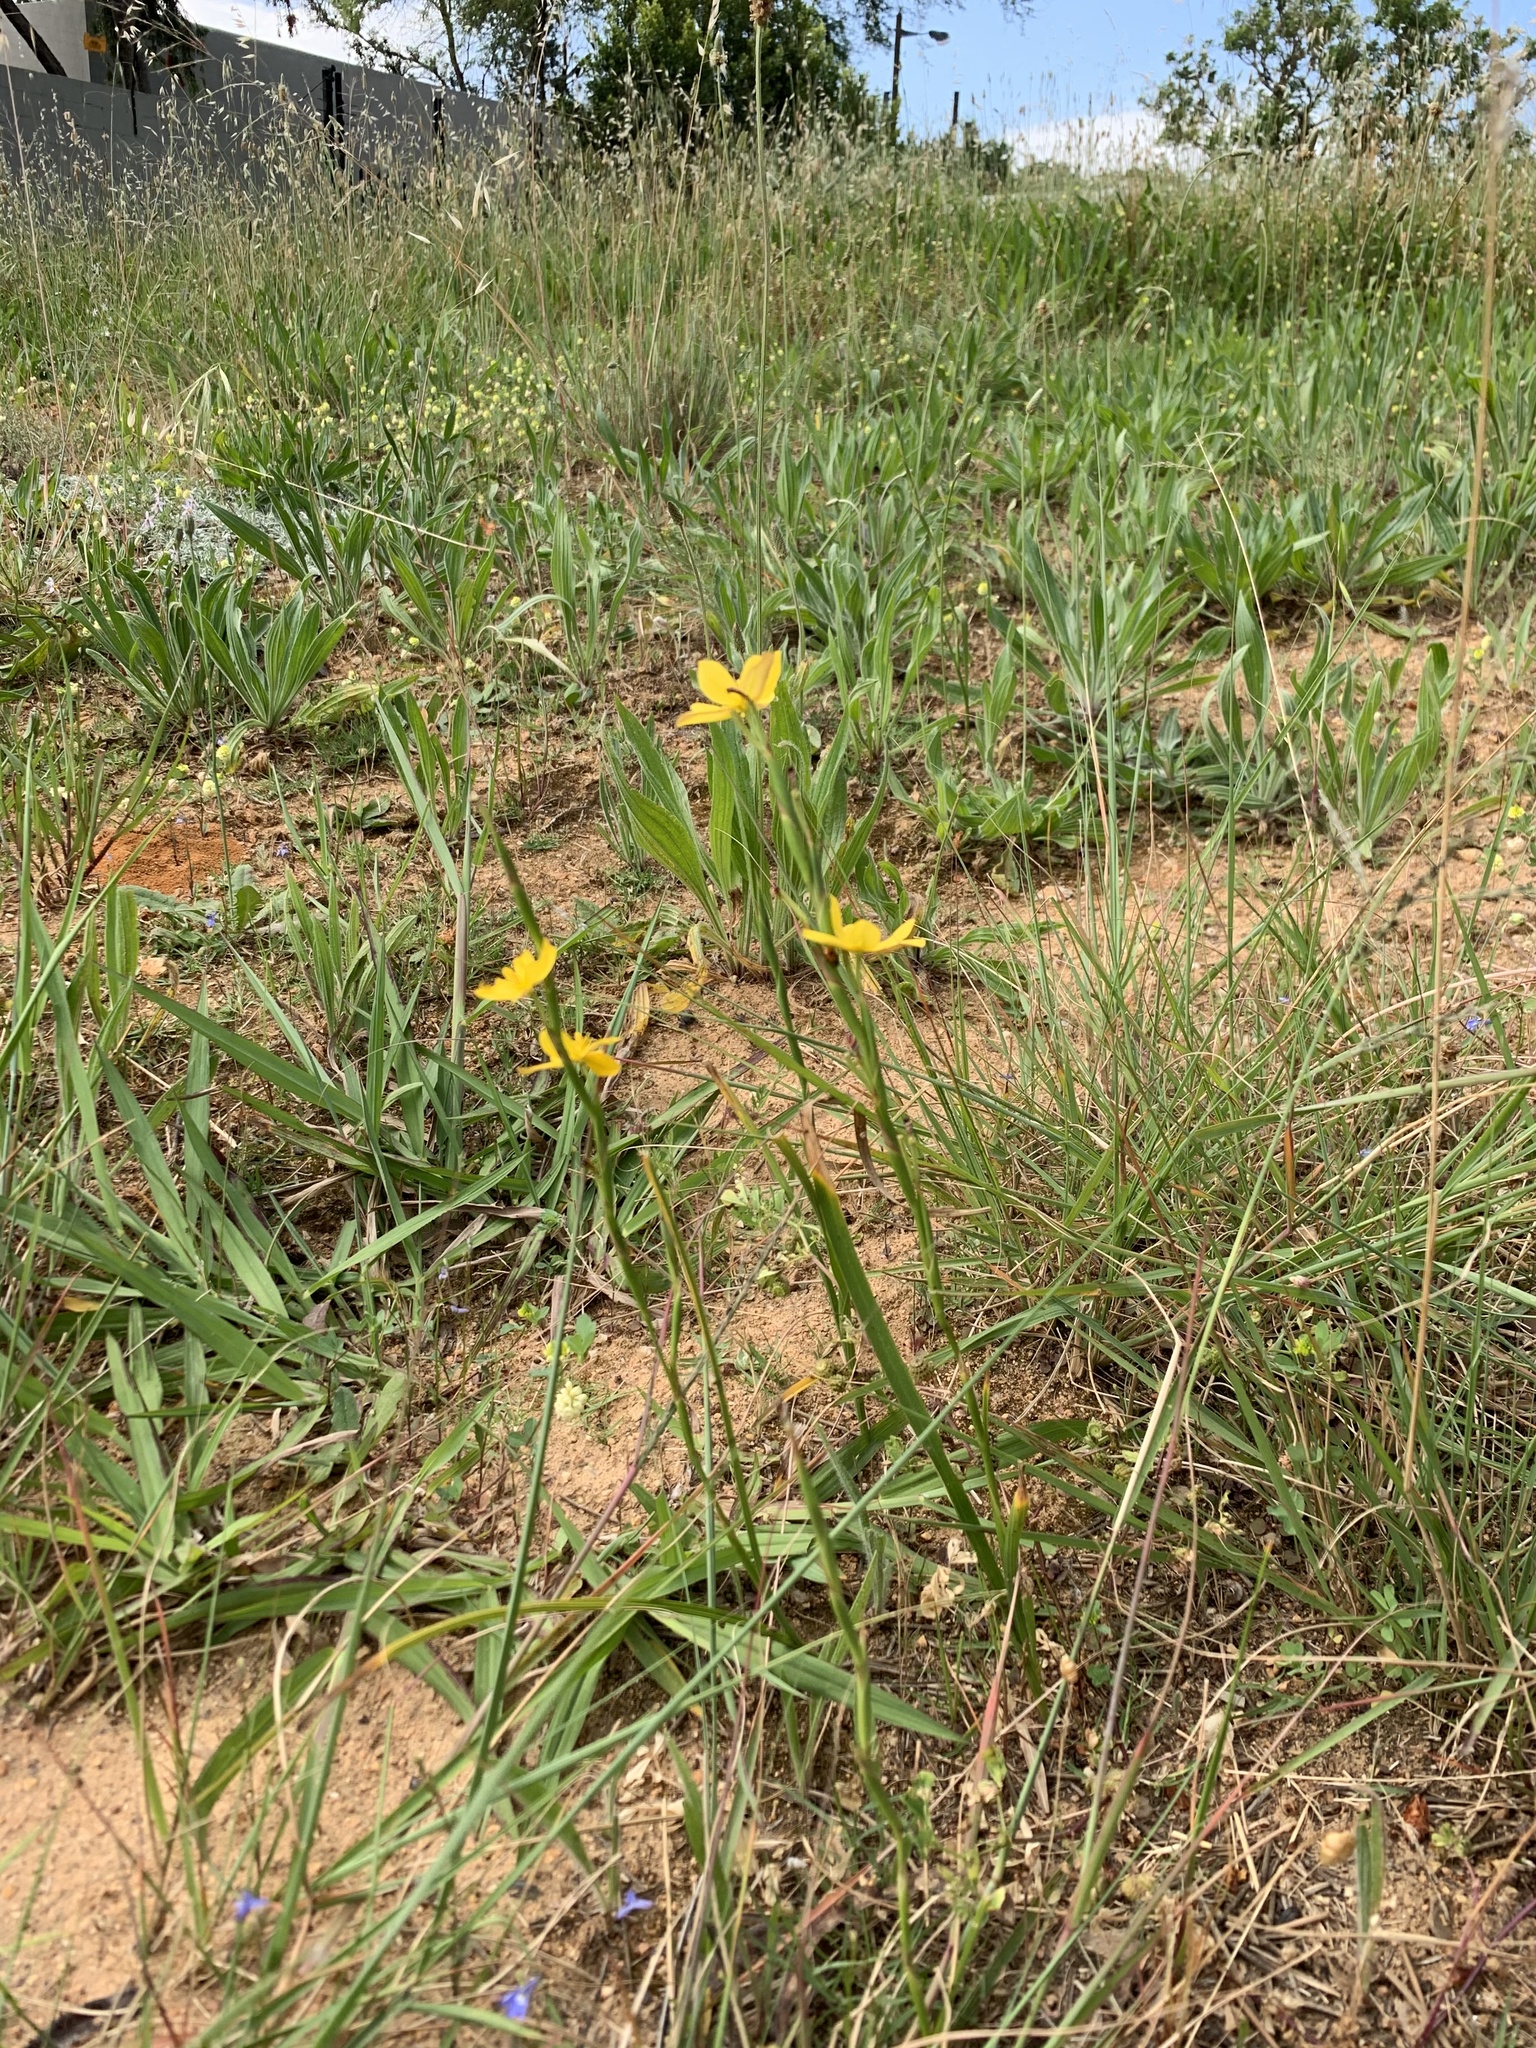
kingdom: Plantae
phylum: Tracheophyta
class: Liliopsida
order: Asparagales
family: Iridaceae
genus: Moraea
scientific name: Moraea lewisiae
